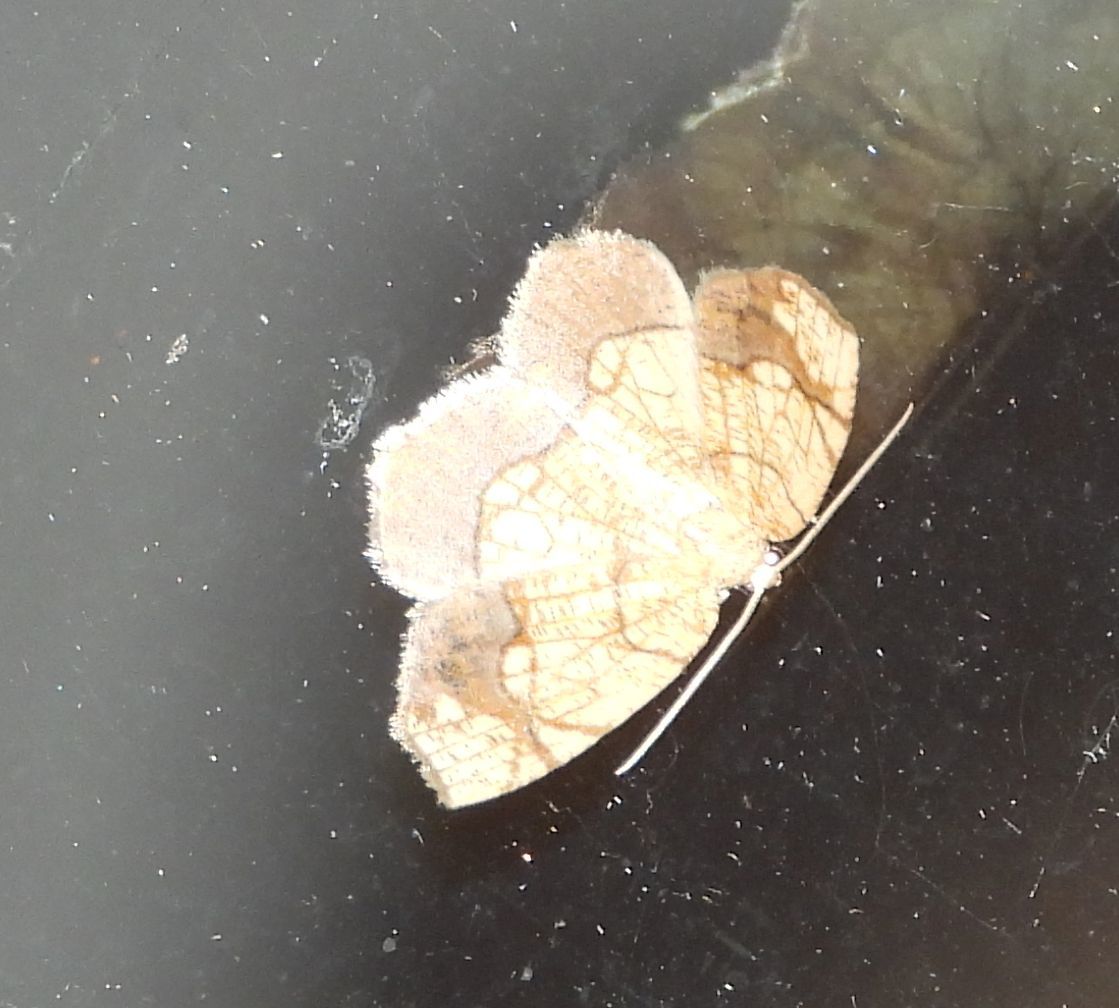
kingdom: Animalia
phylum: Arthropoda
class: Insecta
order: Lepidoptera
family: Geometridae
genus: Nematocampa
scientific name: Nematocampa resistaria
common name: Horned spanworm moth
